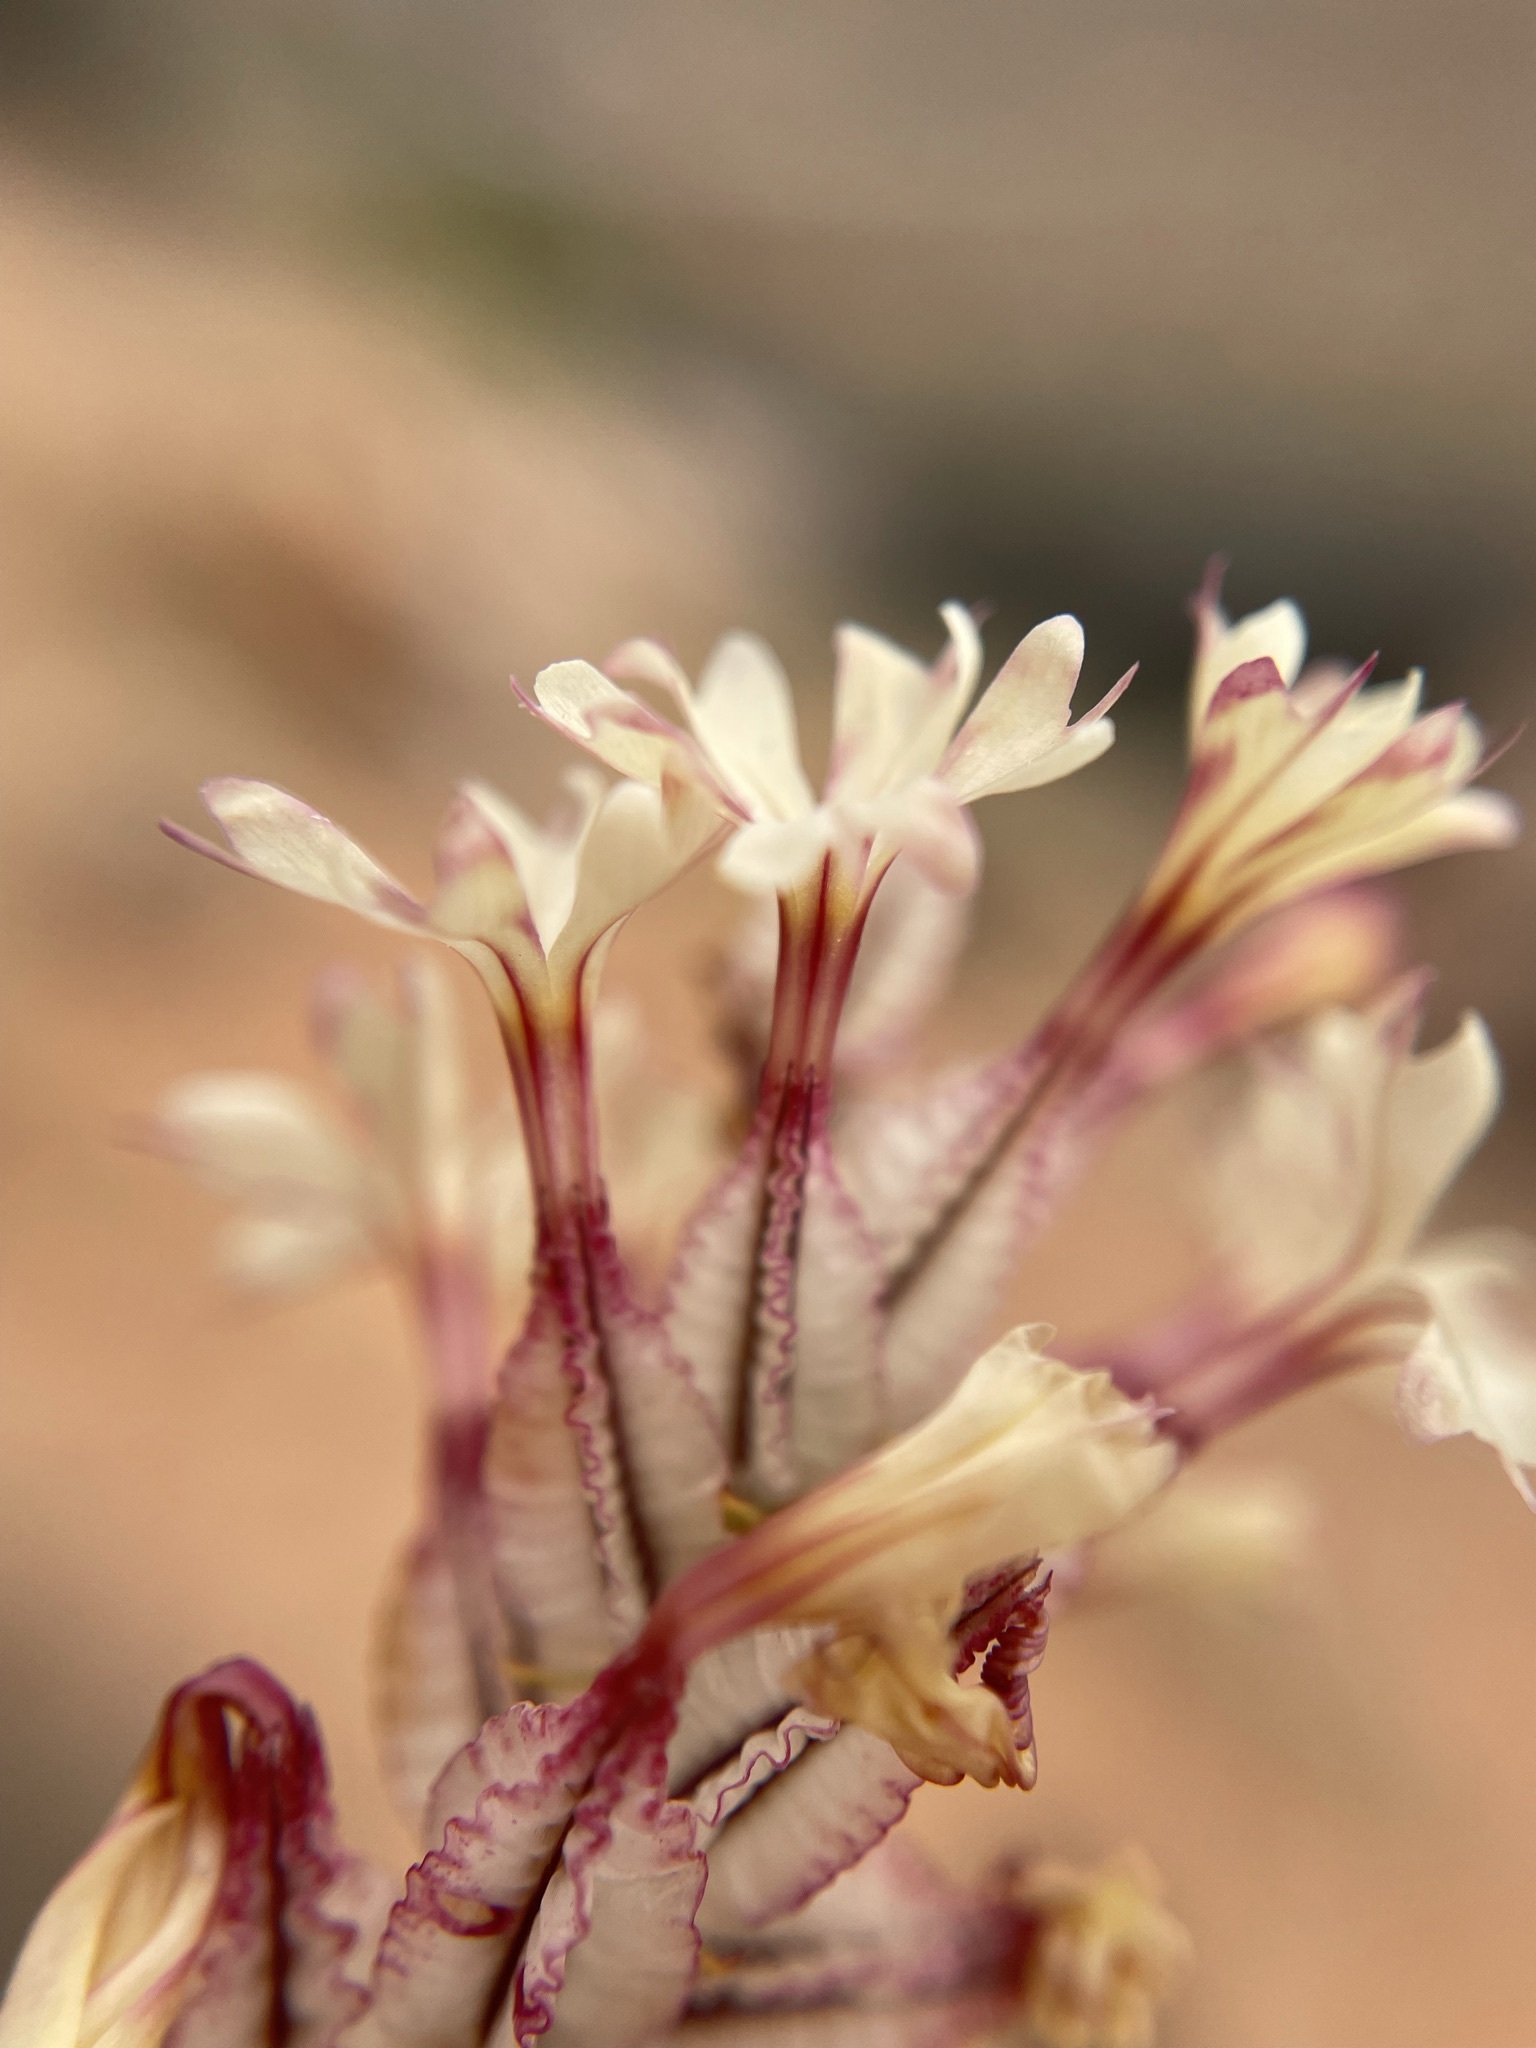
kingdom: Plantae
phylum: Tracheophyta
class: Magnoliopsida
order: Caryophyllales
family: Plumbaginaceae
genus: Dyerophytum
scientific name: Dyerophytum africanum
